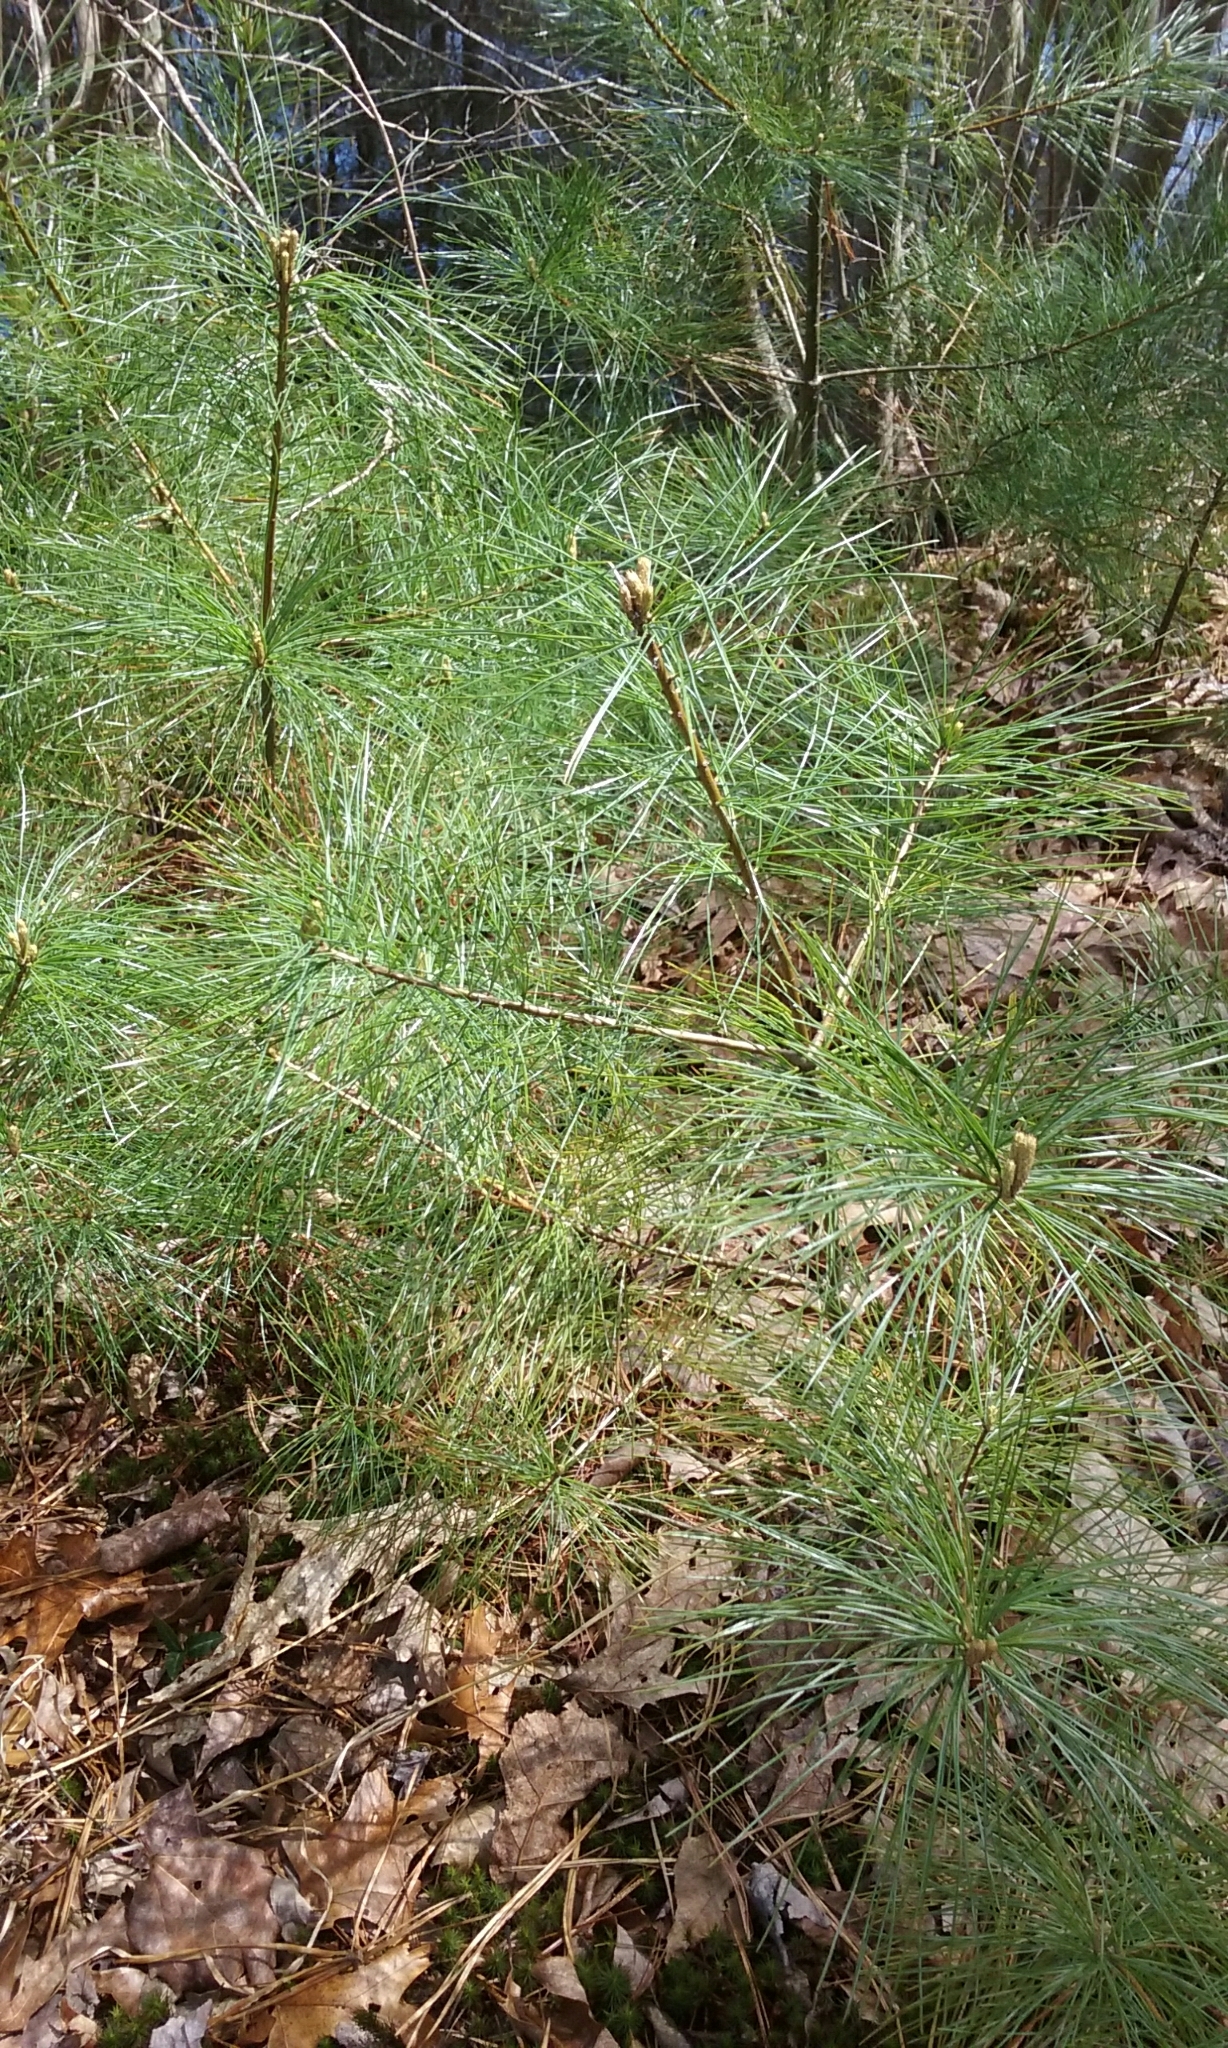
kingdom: Plantae
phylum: Tracheophyta
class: Pinopsida
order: Pinales
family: Pinaceae
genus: Pinus
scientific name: Pinus strobus
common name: Weymouth pine
